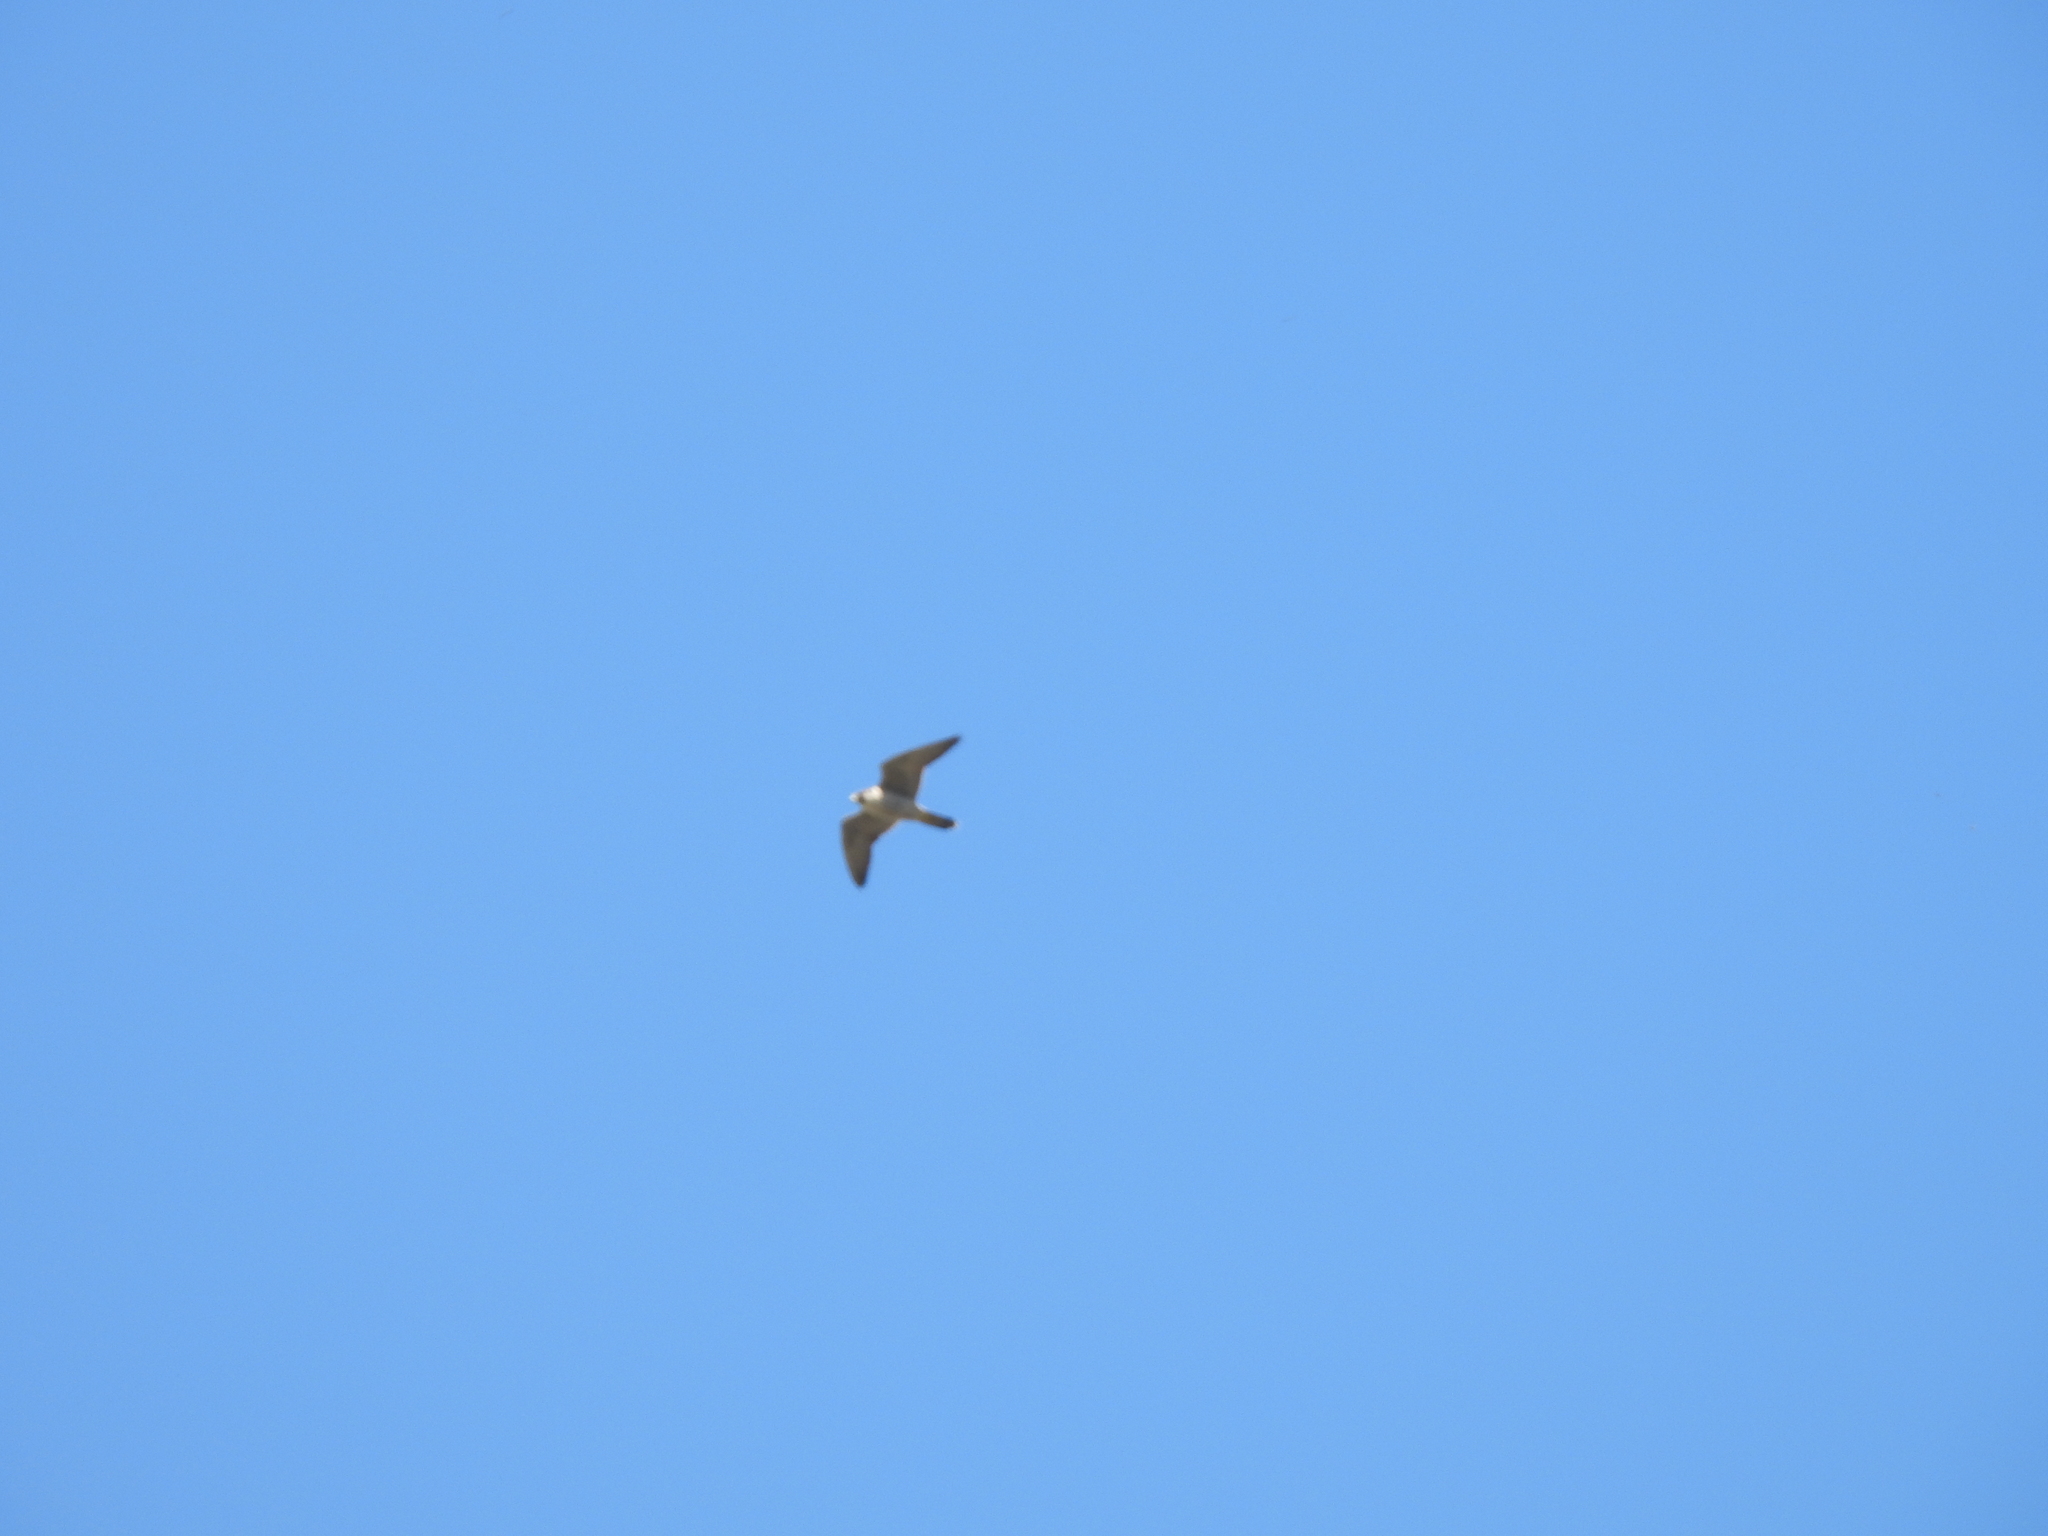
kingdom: Animalia
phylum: Chordata
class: Aves
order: Falconiformes
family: Falconidae
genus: Falco
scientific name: Falco peregrinus
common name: Peregrine falcon
